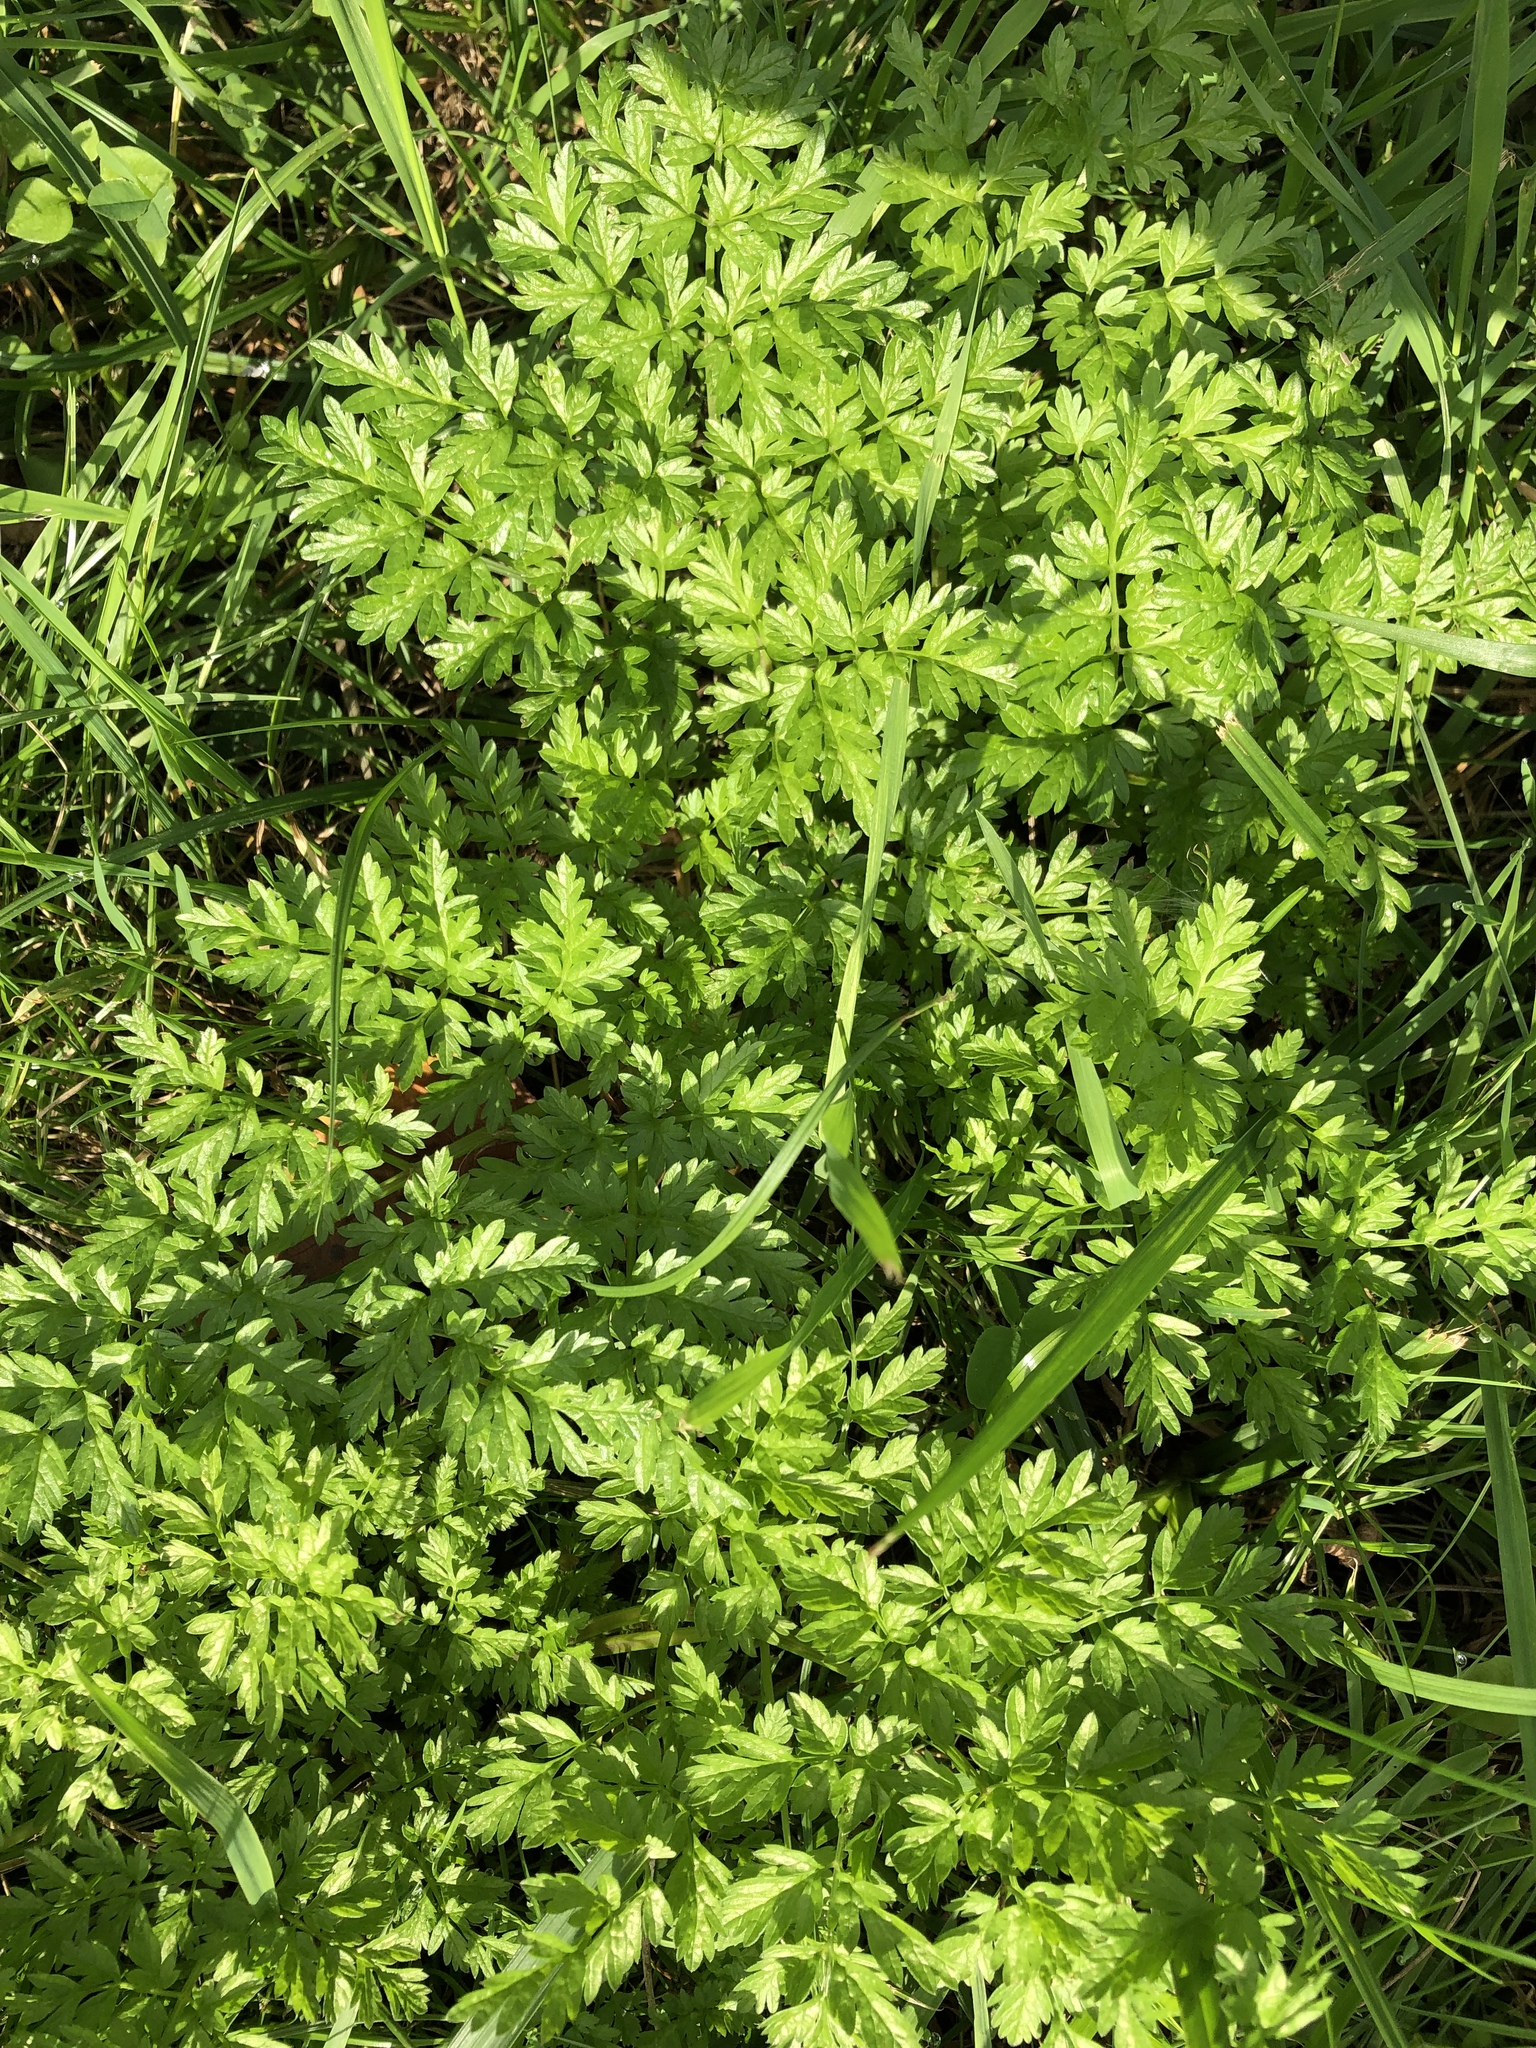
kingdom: Plantae
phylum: Tracheophyta
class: Magnoliopsida
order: Apiales
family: Apiaceae
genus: Anthriscus
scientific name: Anthriscus sylvestris
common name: Cow parsley
